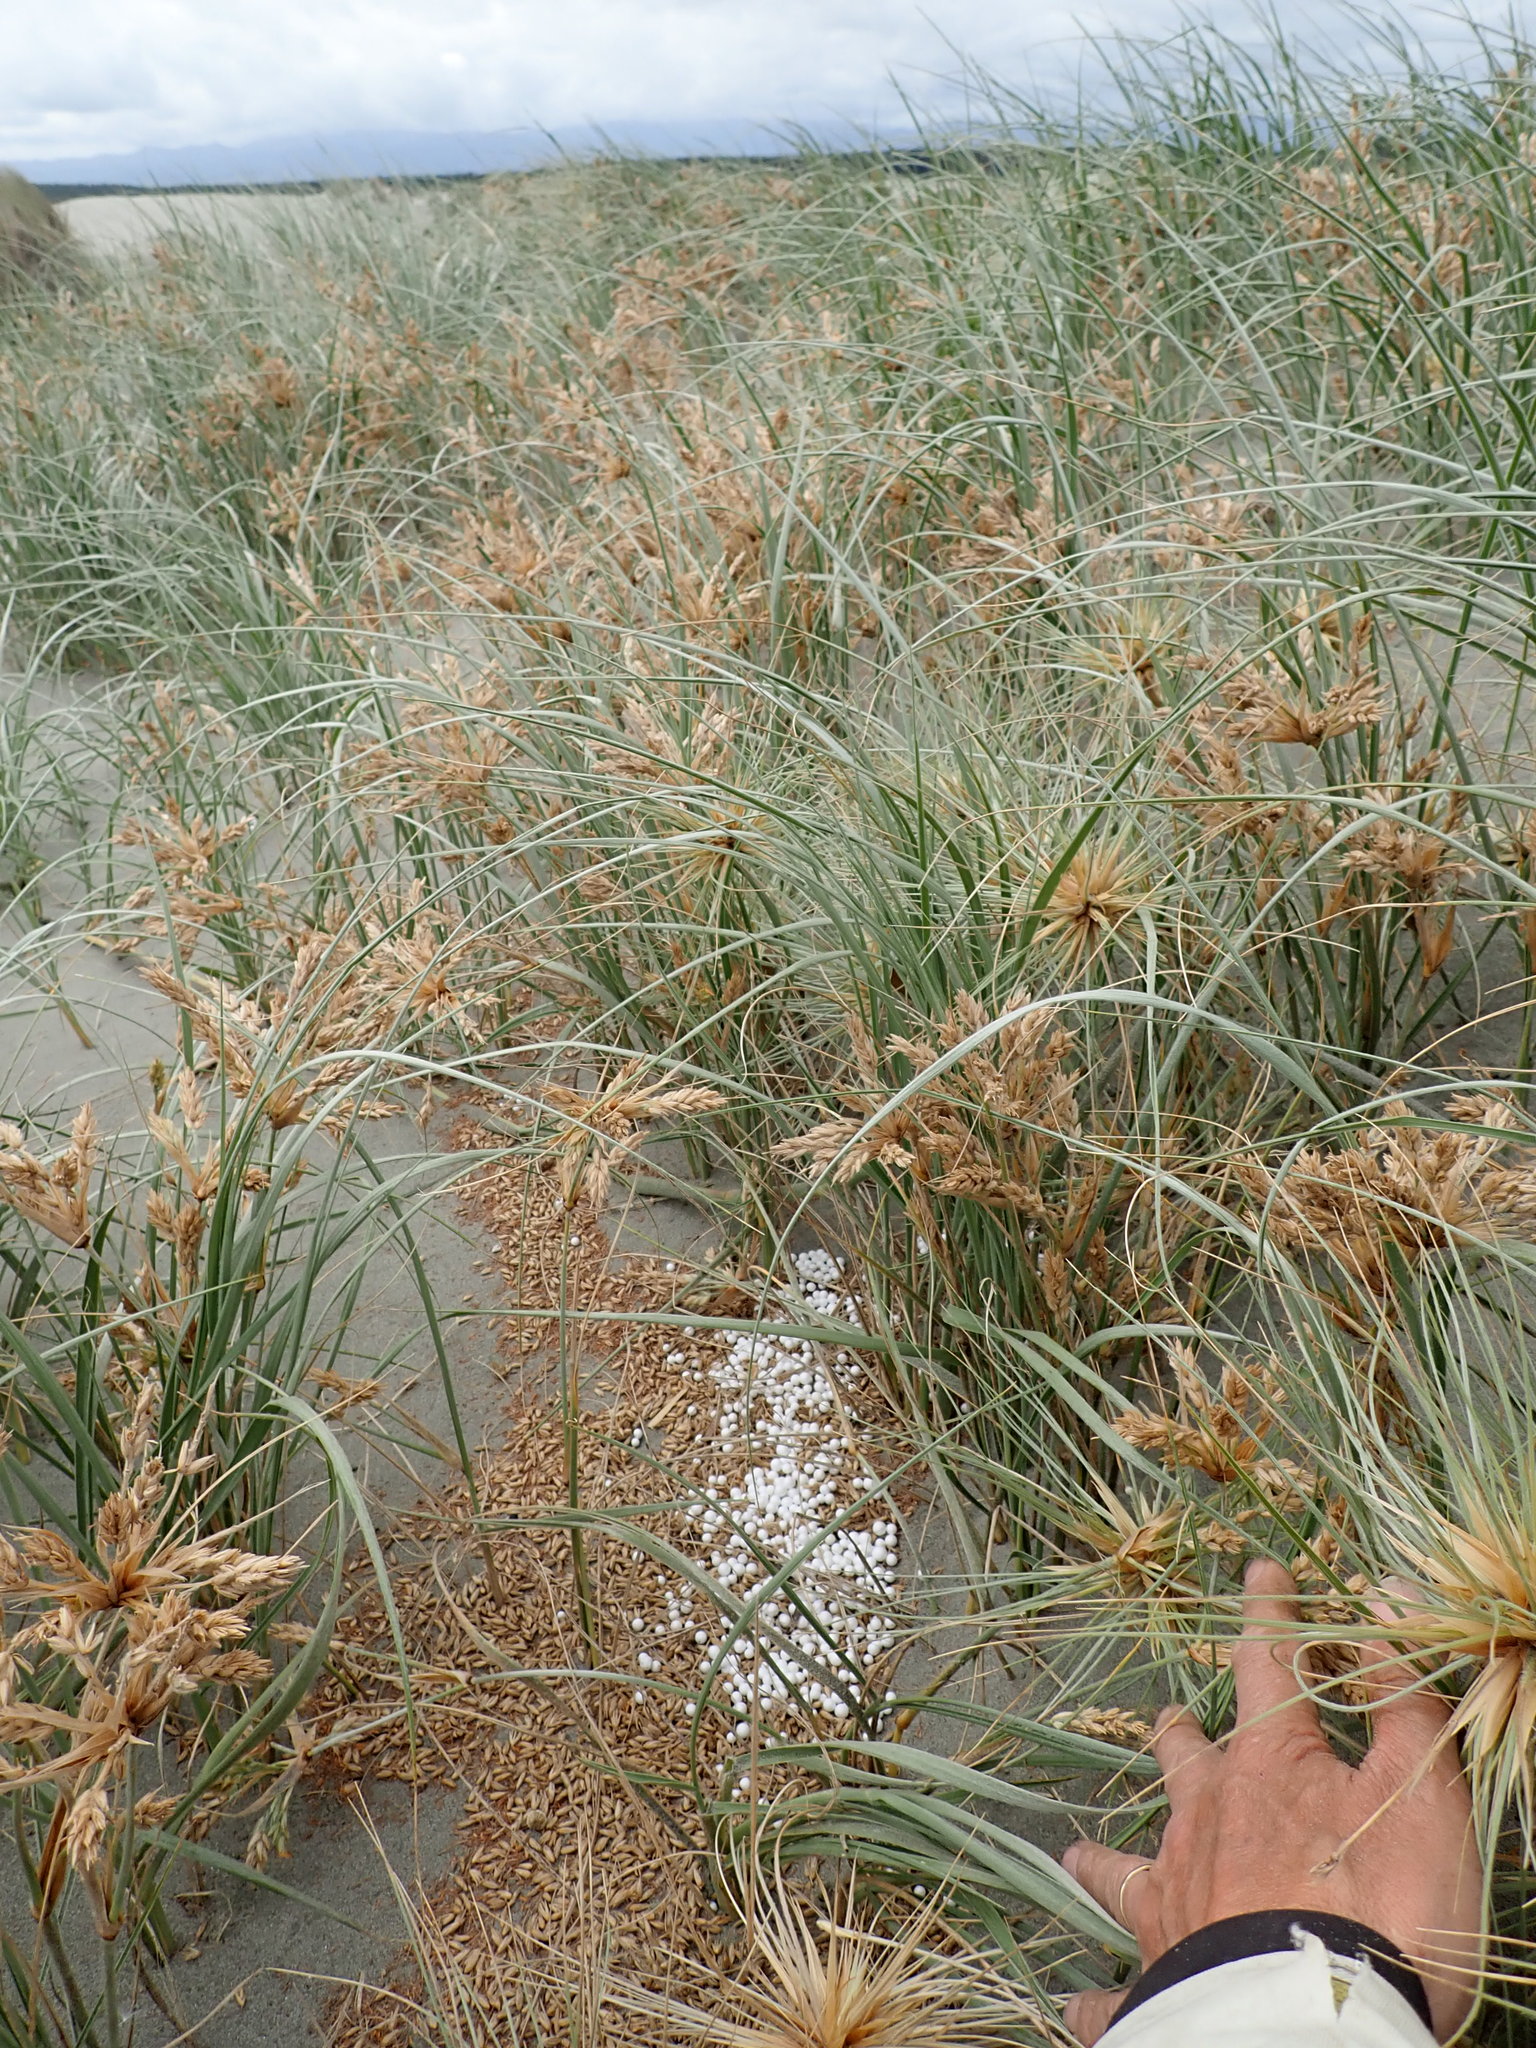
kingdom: Plantae
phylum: Tracheophyta
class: Liliopsida
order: Poales
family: Poaceae
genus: Spinifex
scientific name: Spinifex sericeus
